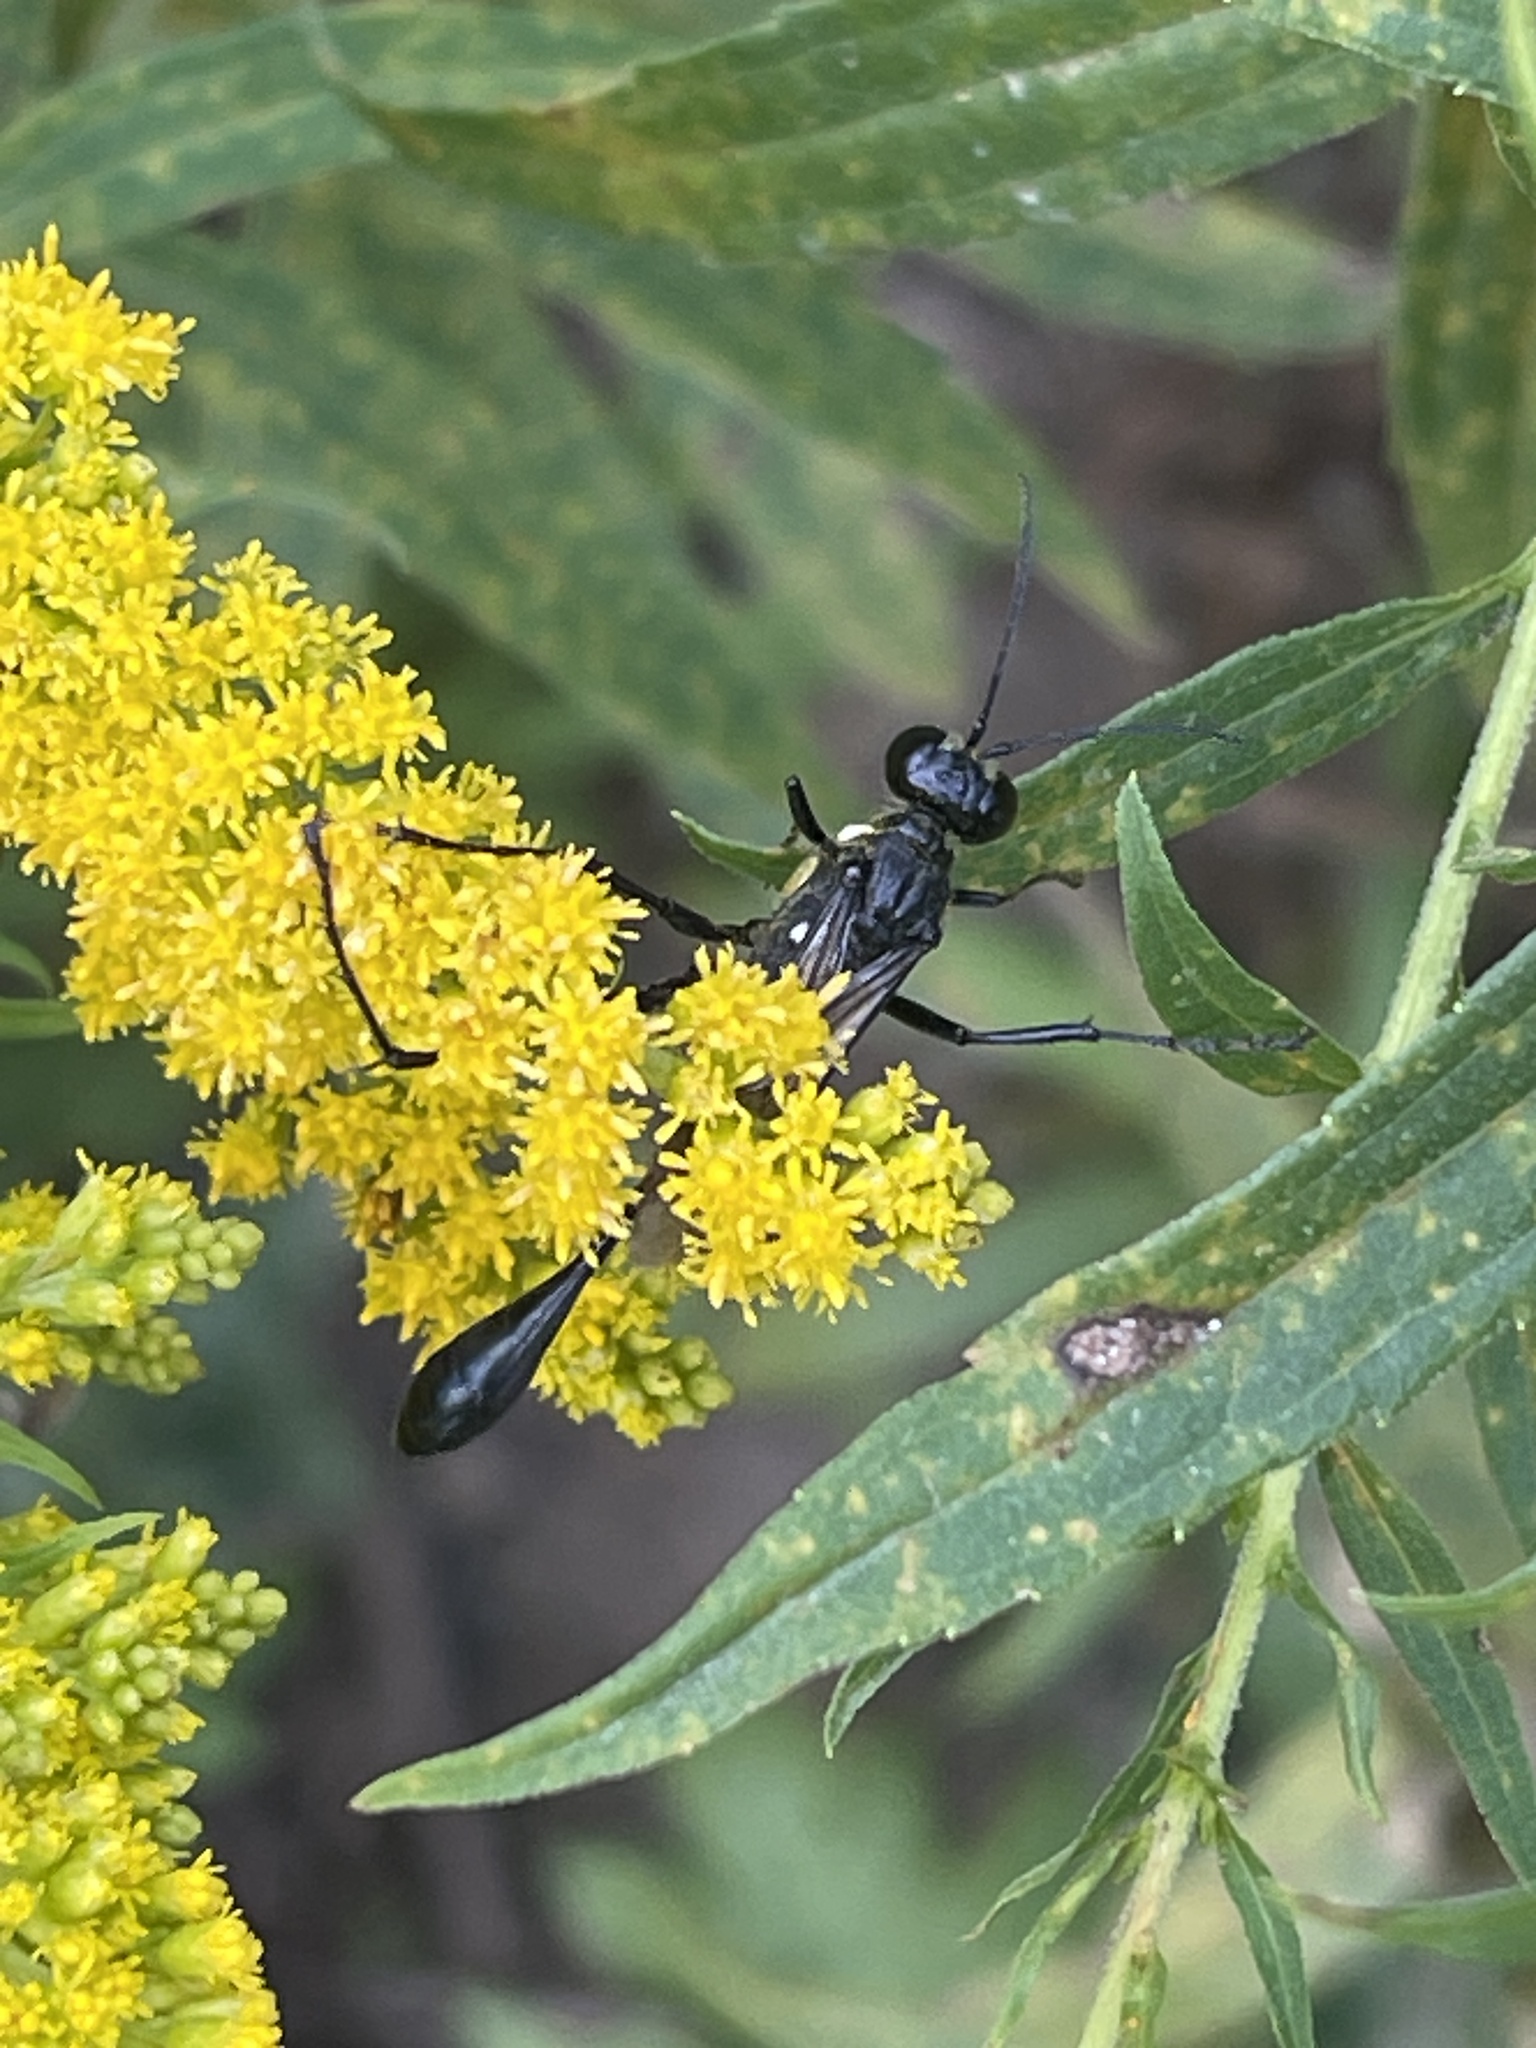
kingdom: Animalia
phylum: Arthropoda
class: Insecta
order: Hymenoptera
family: Sphecidae
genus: Eremnophila
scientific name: Eremnophila aureonotata
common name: Gold-marked thread-waisted wasp
